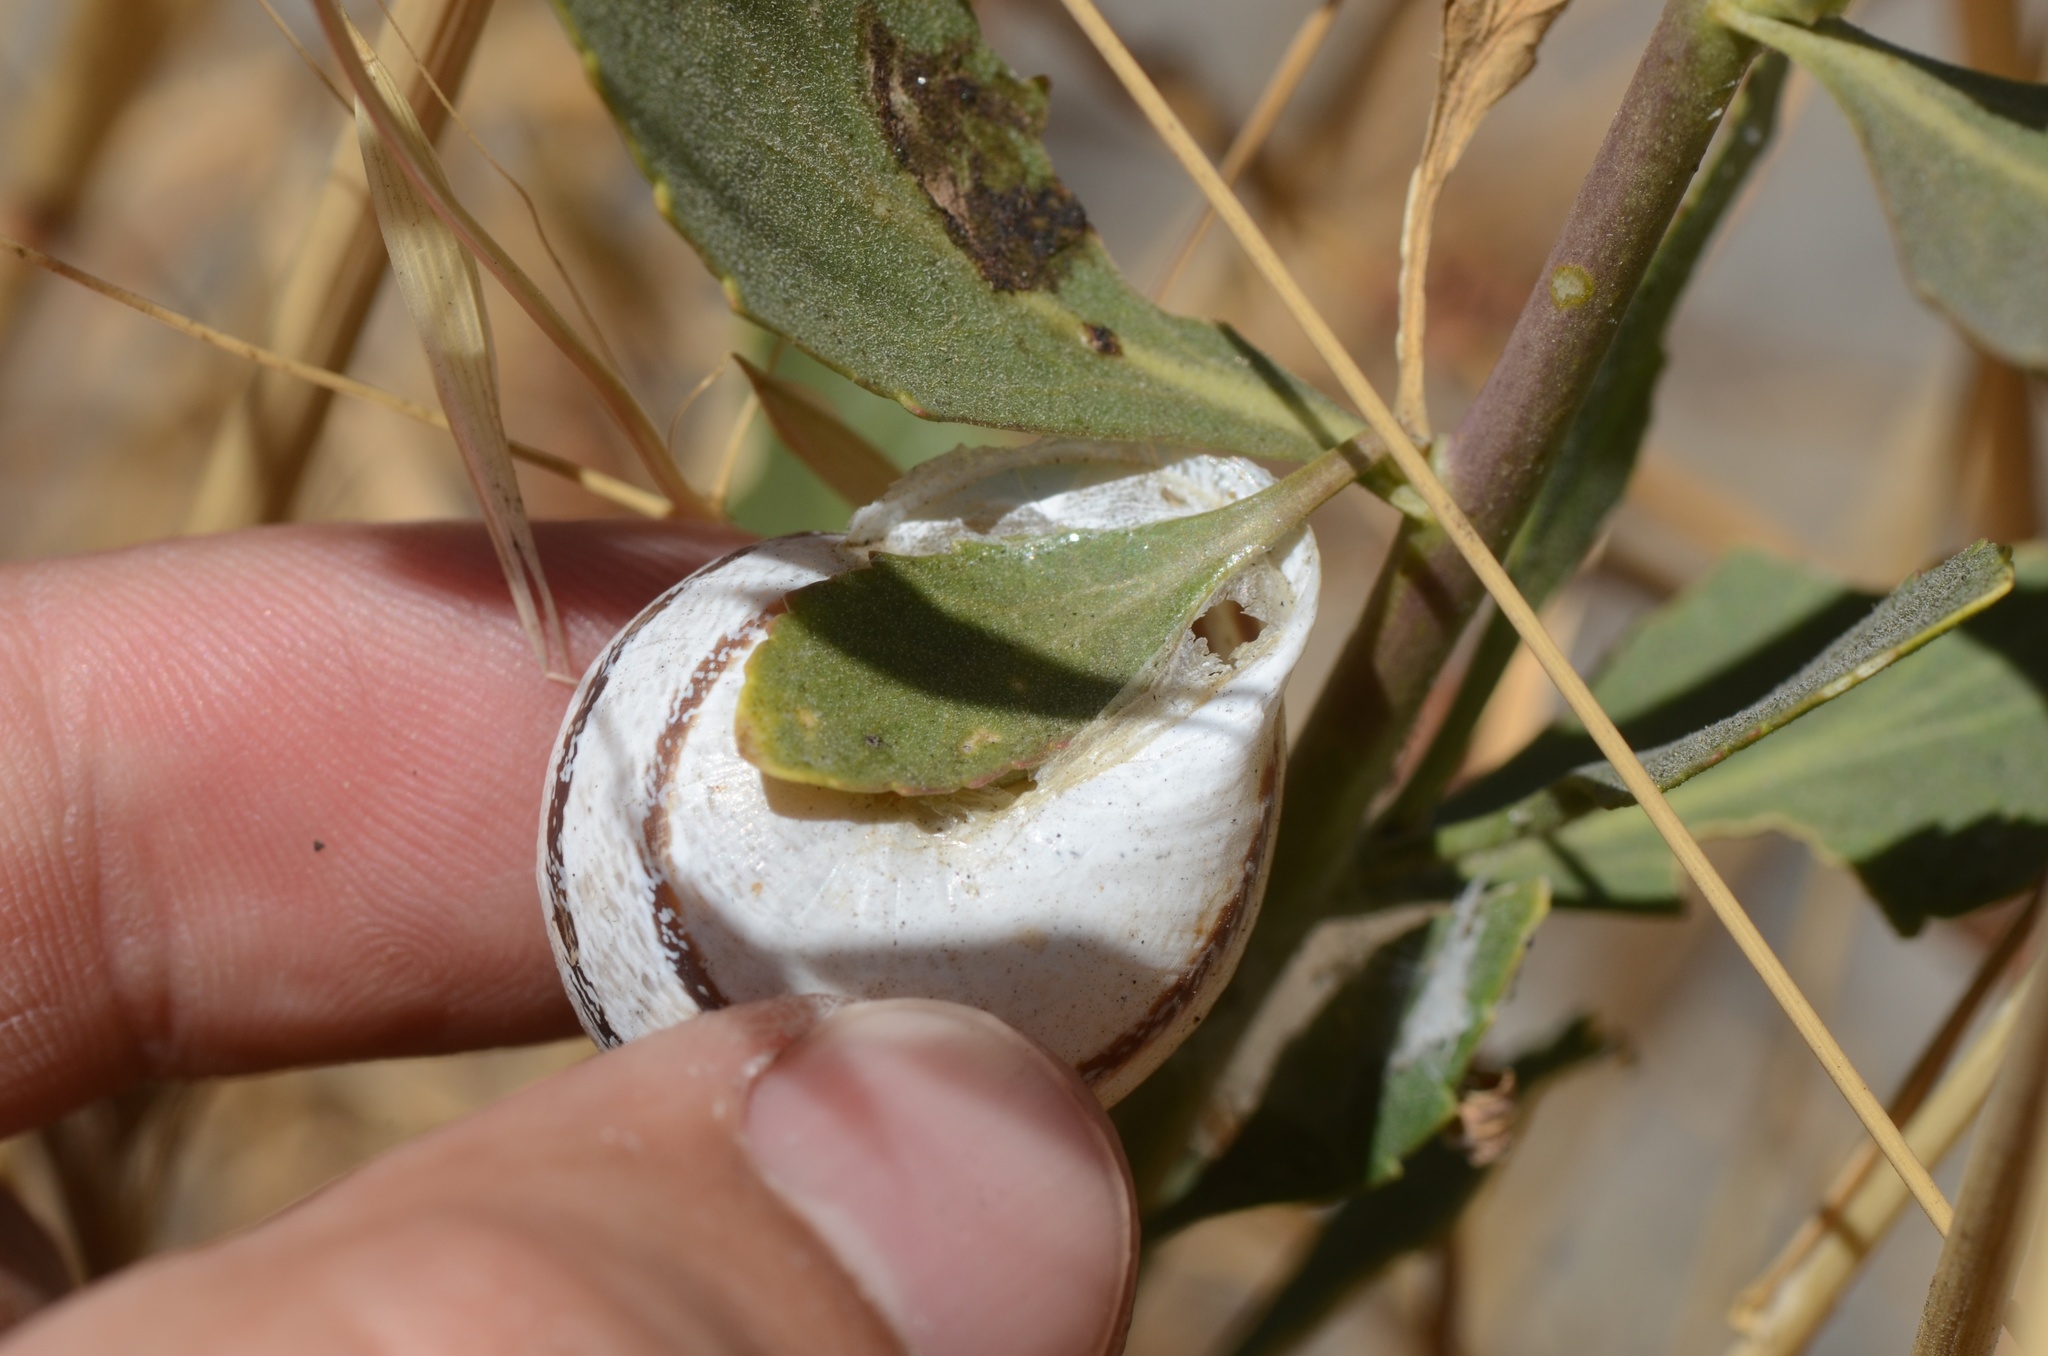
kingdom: Animalia
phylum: Mollusca
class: Gastropoda
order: Stylommatophora
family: Helicidae
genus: Otala
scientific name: Otala lactea
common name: Milk snail
